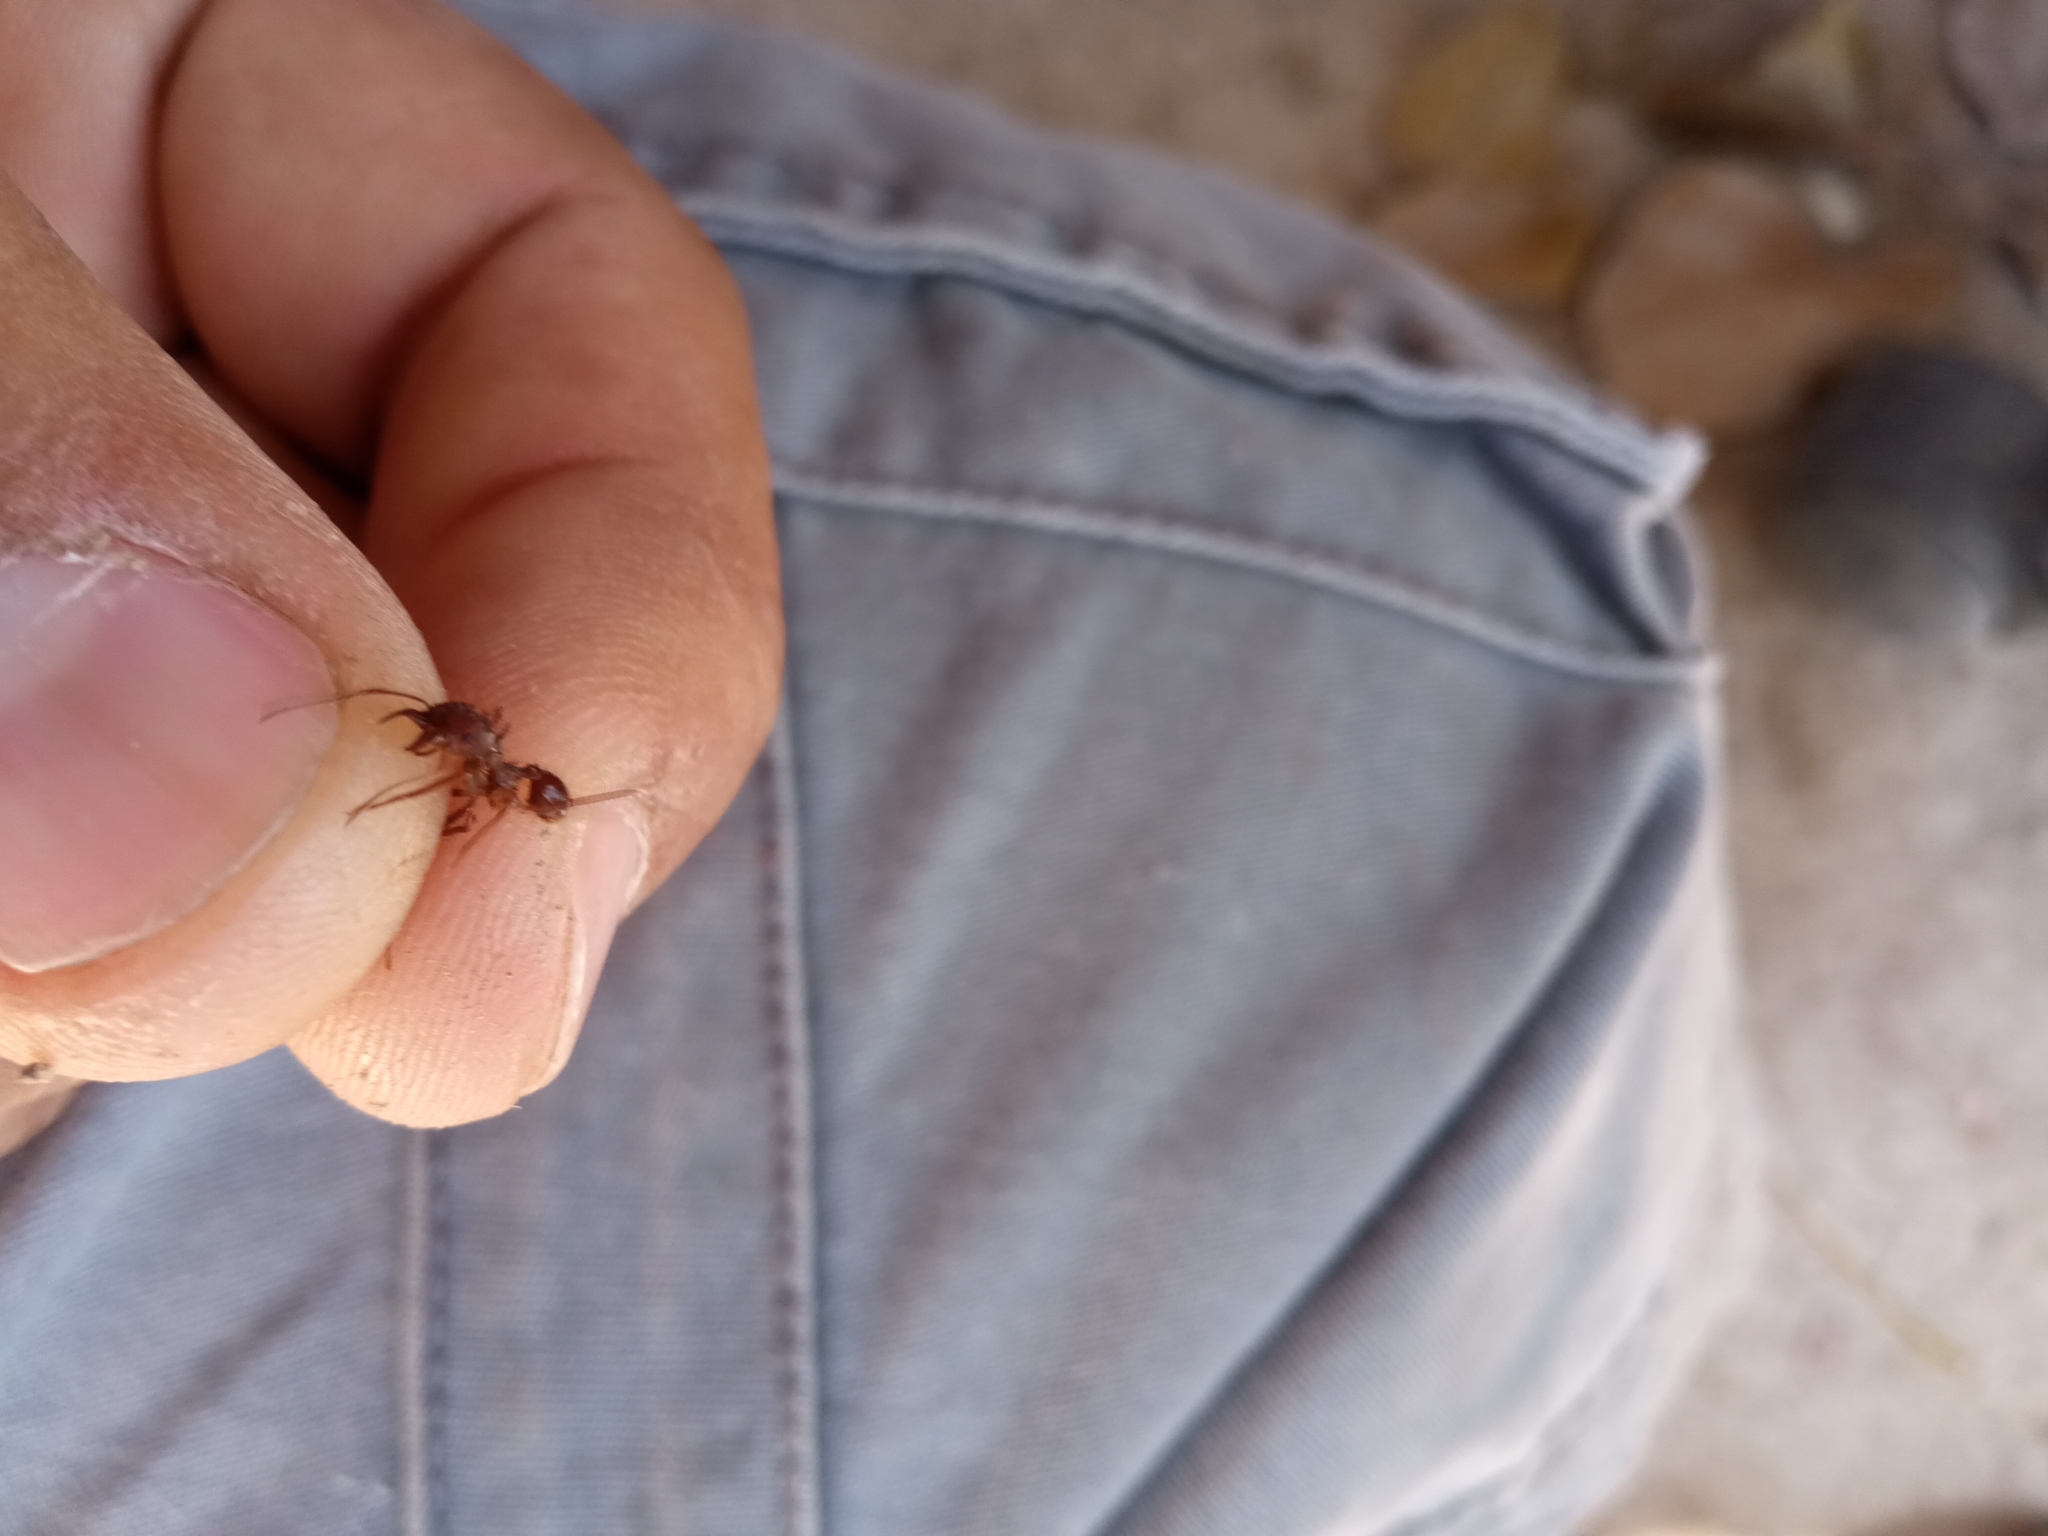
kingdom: Animalia
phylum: Arthropoda
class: Insecta
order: Hymenoptera
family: Formicidae
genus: Atta
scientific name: Atta mexicana
